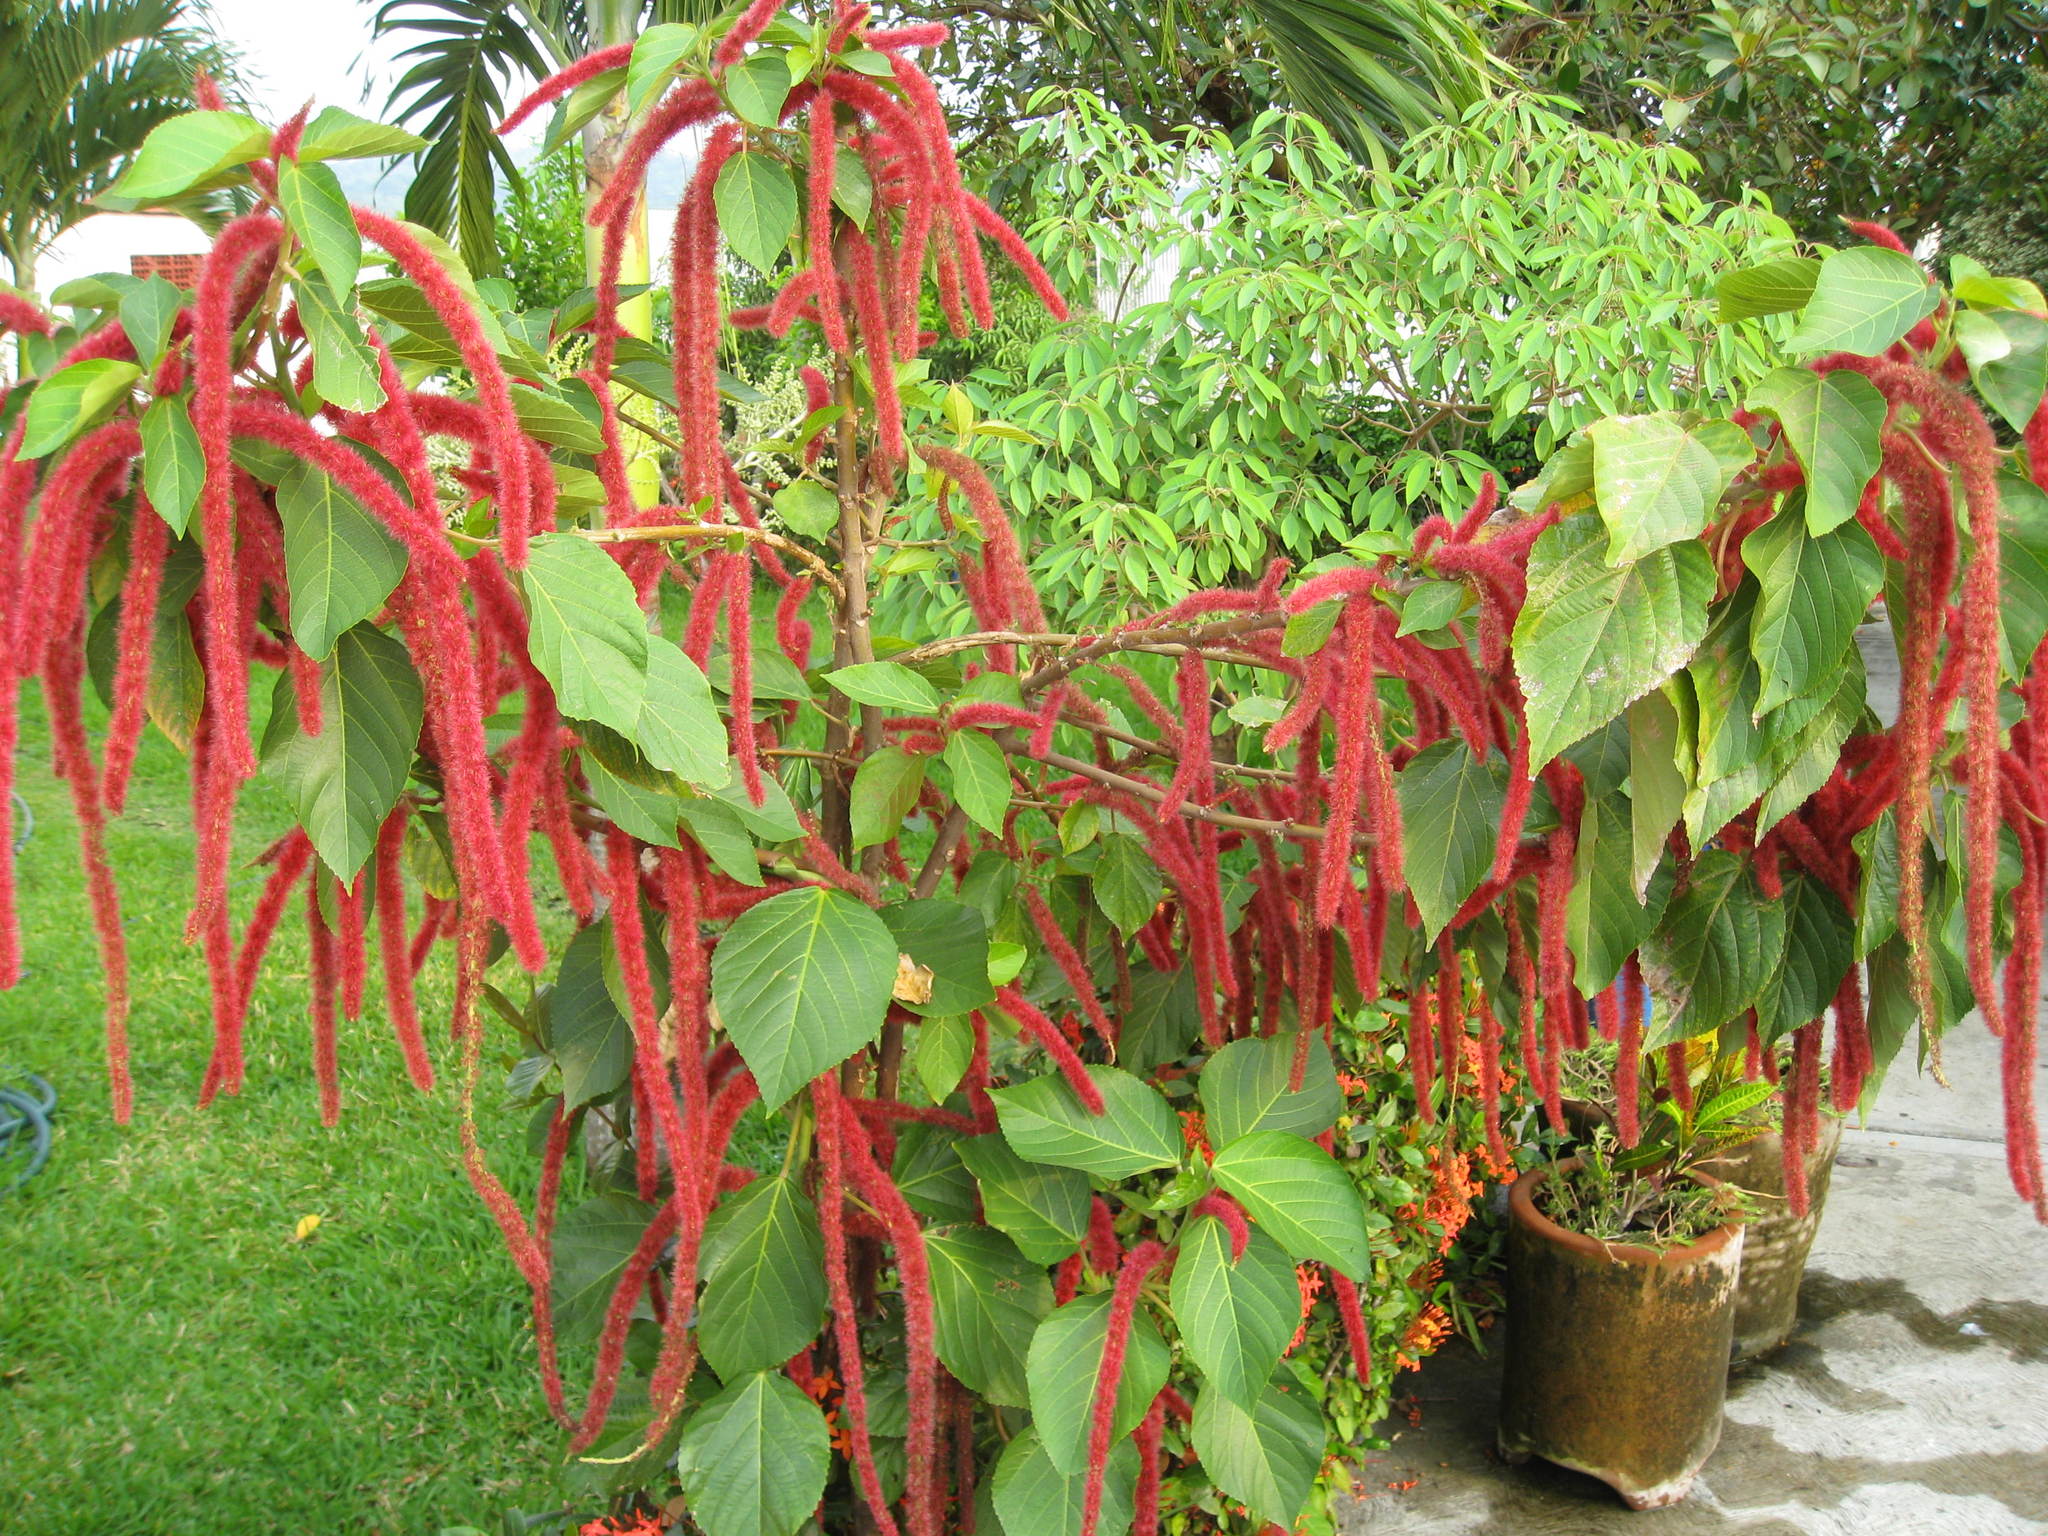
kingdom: Plantae
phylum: Tracheophyta
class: Magnoliopsida
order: Malpighiales
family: Euphorbiaceae
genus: Acalypha
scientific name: Acalypha hispida
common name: Chenilleplant
